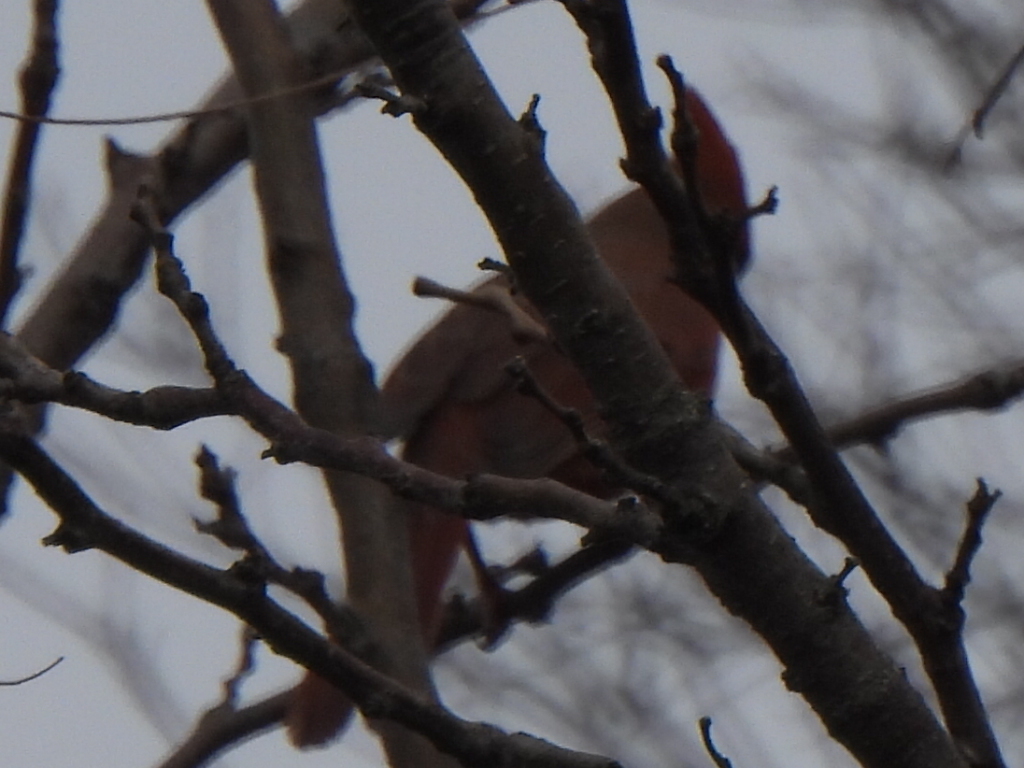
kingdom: Animalia
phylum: Chordata
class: Aves
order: Passeriformes
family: Cardinalidae
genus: Cardinalis
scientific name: Cardinalis cardinalis
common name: Northern cardinal
